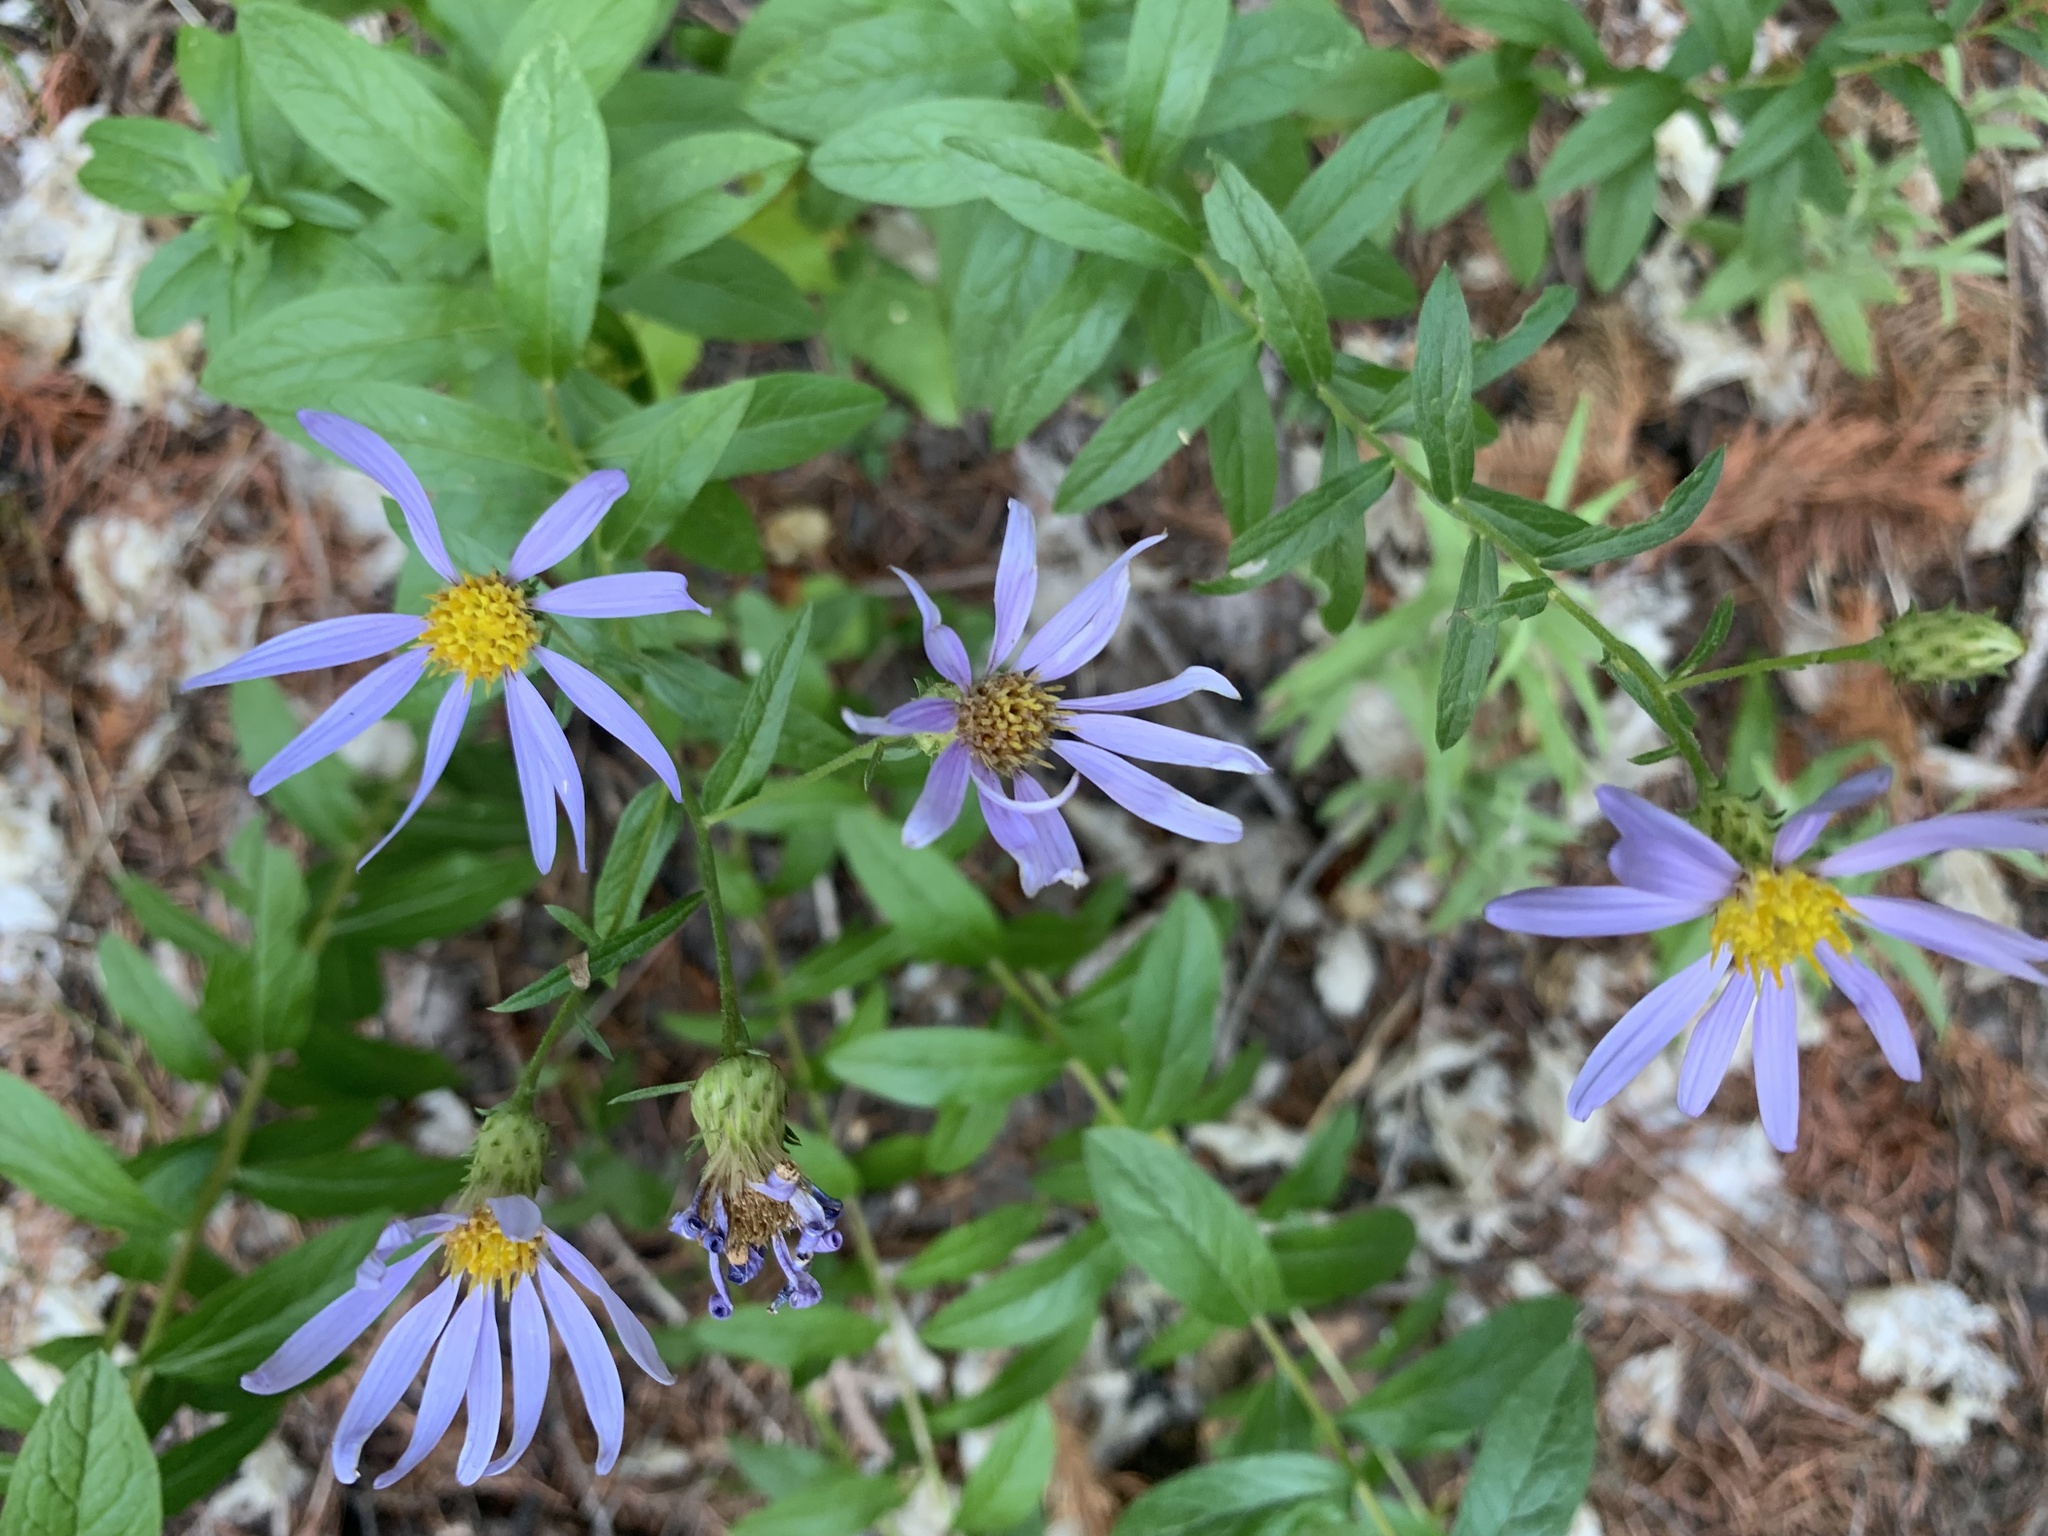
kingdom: Plantae
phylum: Tracheophyta
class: Magnoliopsida
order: Asterales
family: Asteraceae
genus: Canadanthus
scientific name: Canadanthus modestus
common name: Great northern aster
